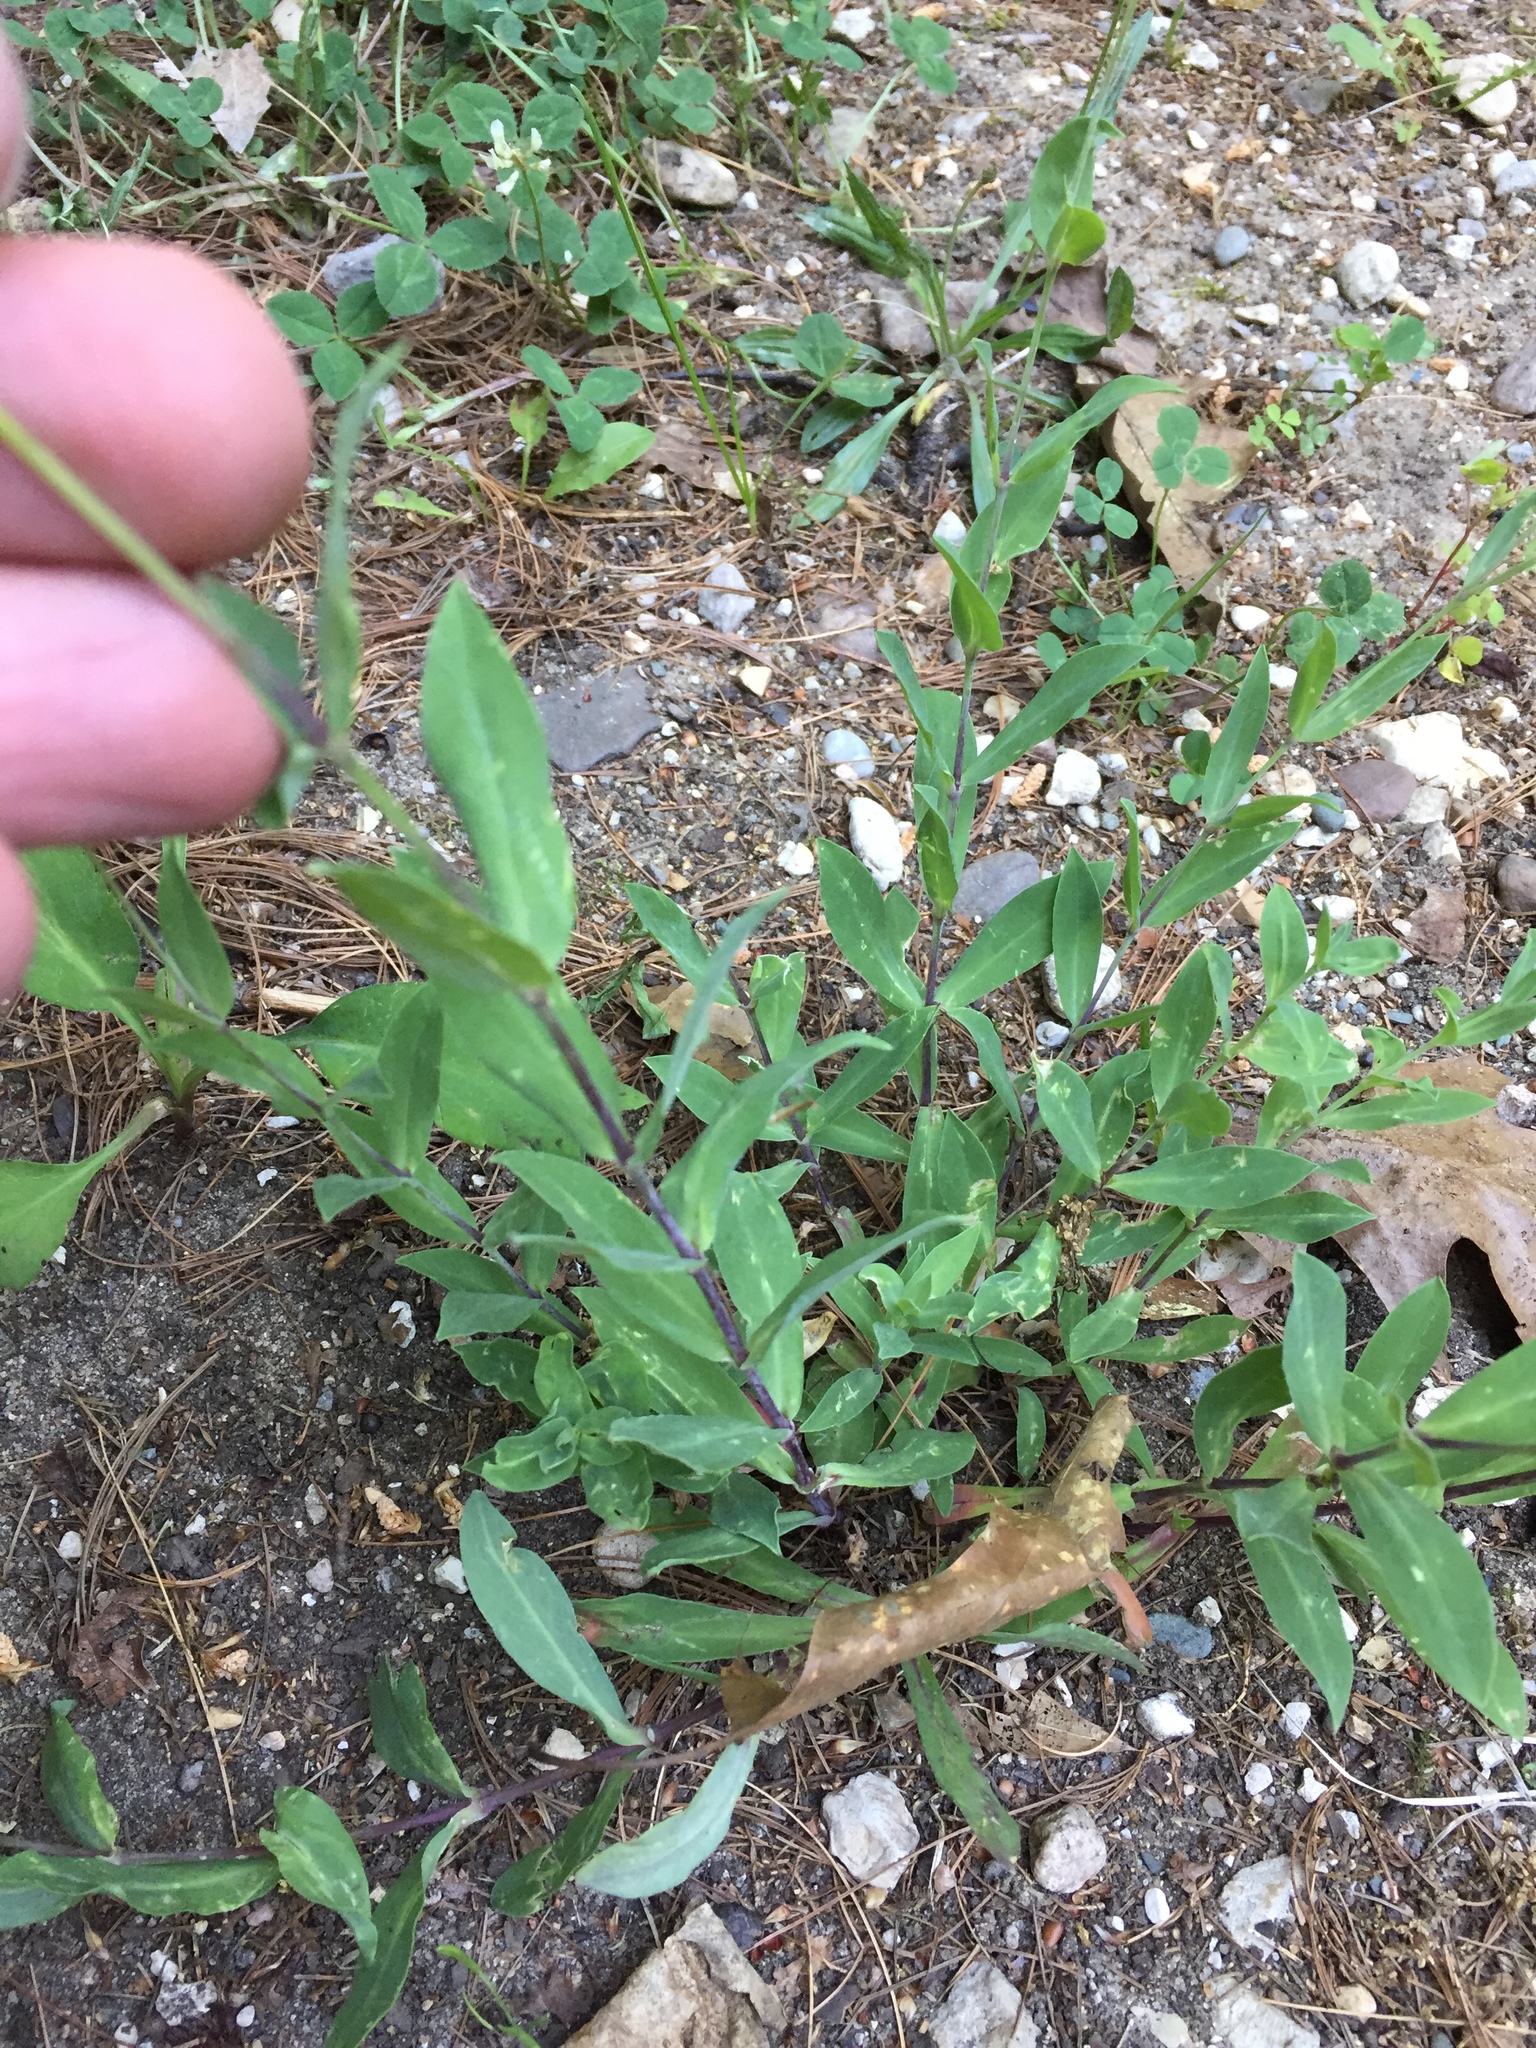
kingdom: Plantae
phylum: Tracheophyta
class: Magnoliopsida
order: Caryophyllales
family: Caryophyllaceae
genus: Silene
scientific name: Silene vulgaris
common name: Bladder campion
